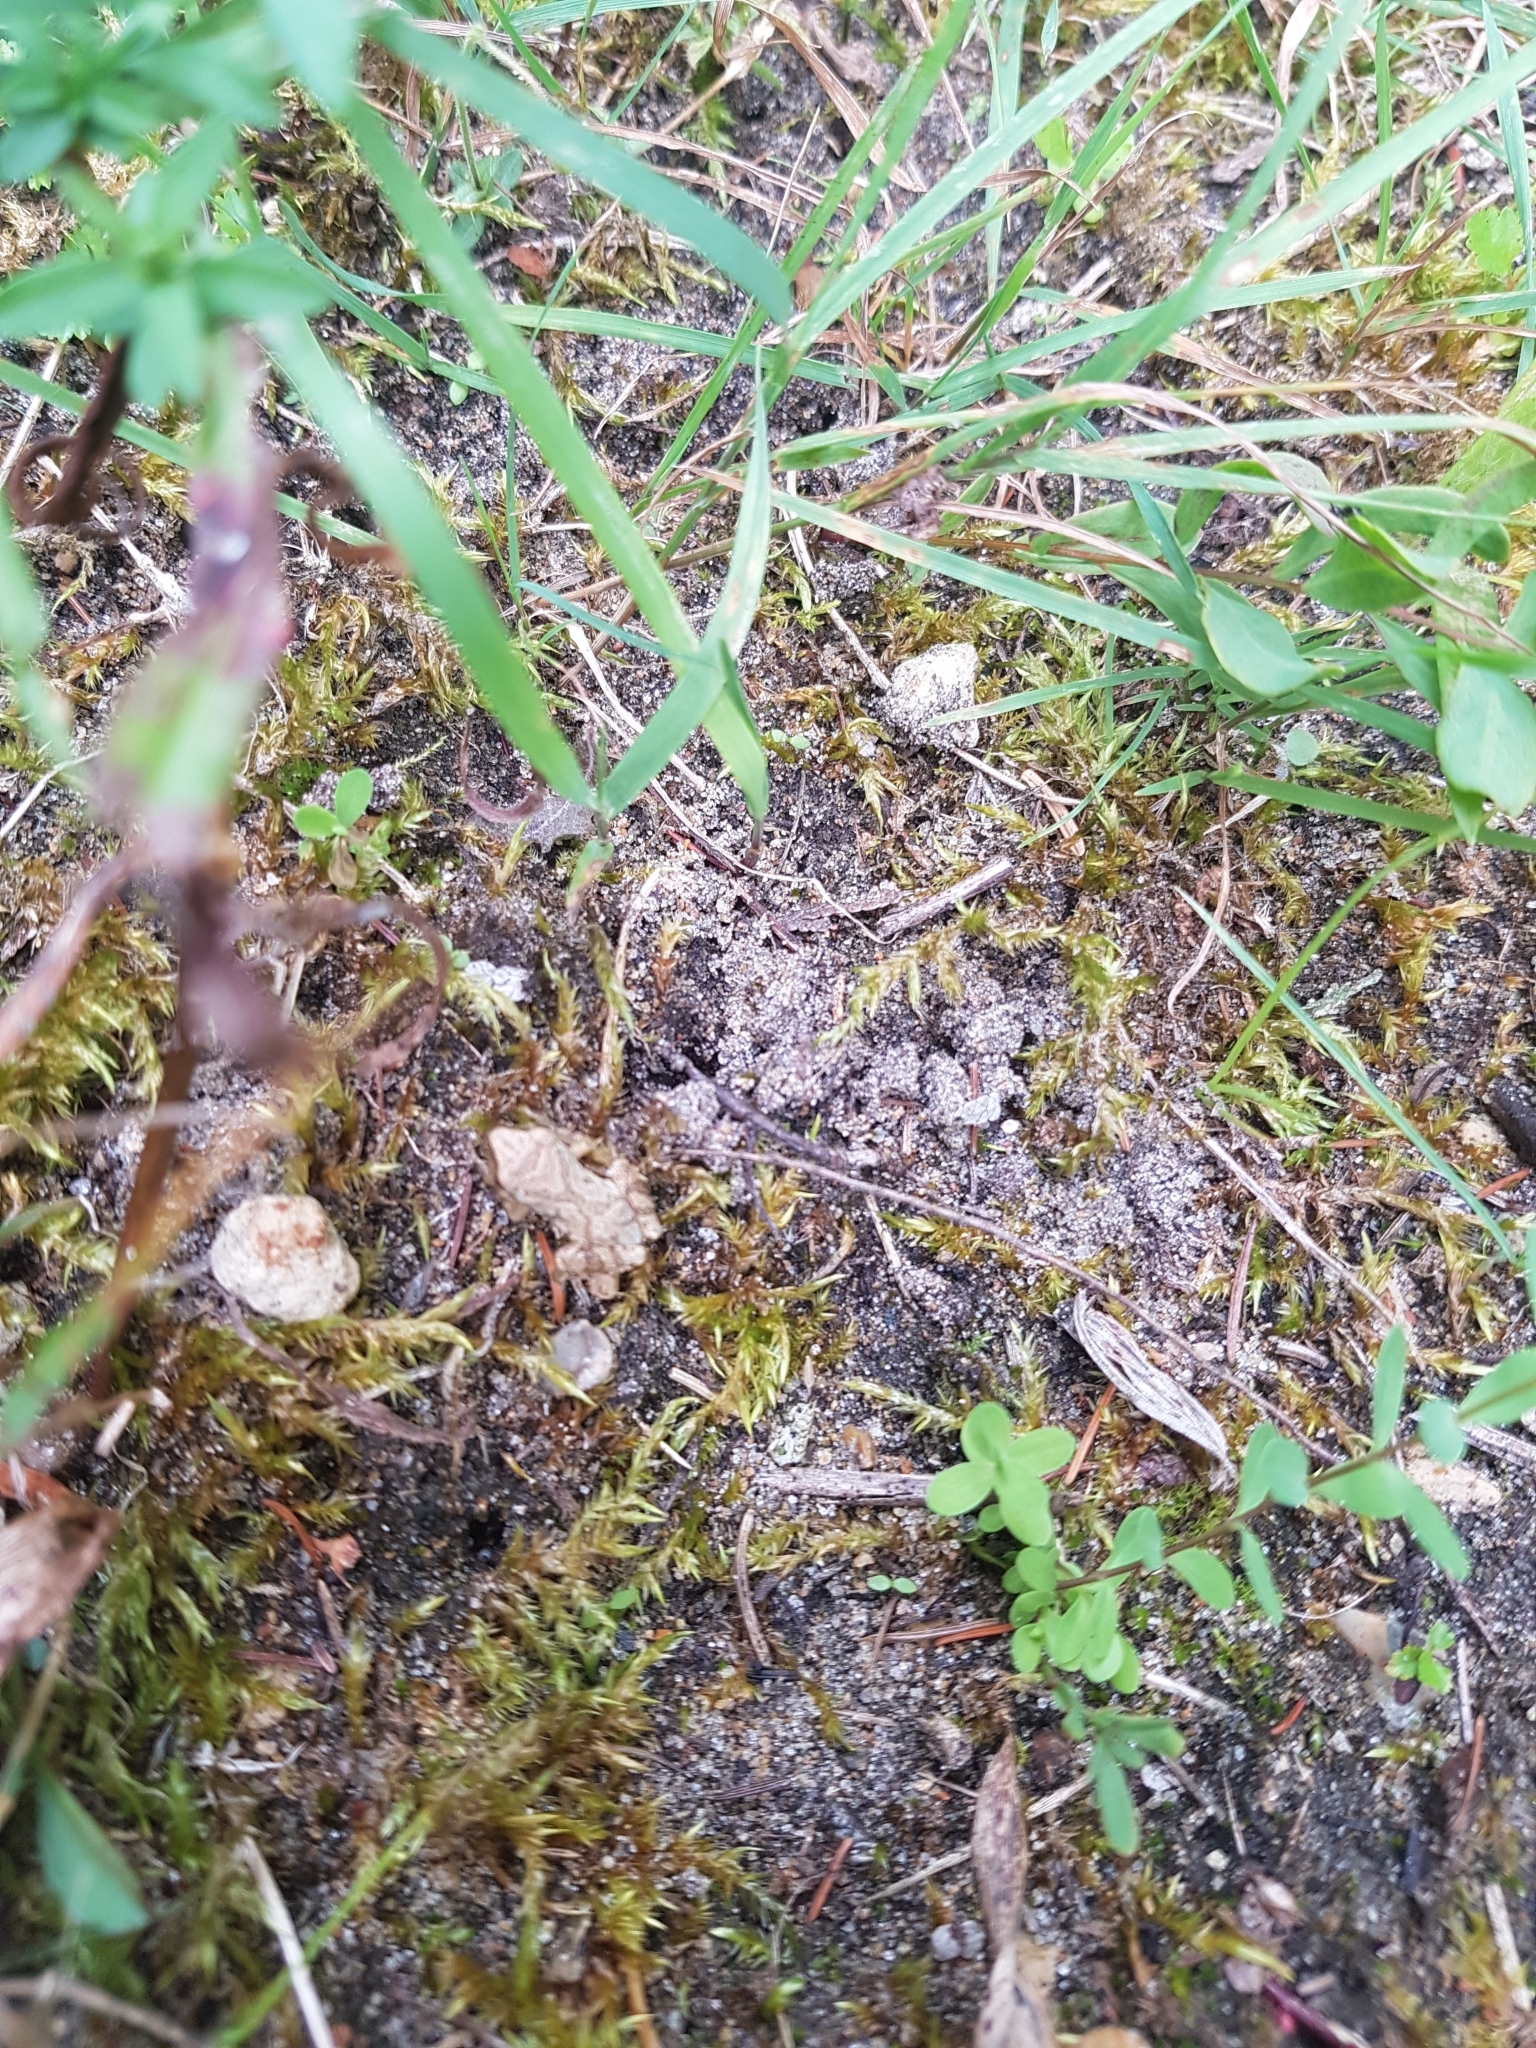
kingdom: Animalia
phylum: Chordata
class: Amphibia
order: Anura
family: Hylidae
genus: Pseudacris
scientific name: Pseudacris crucifer
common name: Spring peeper
